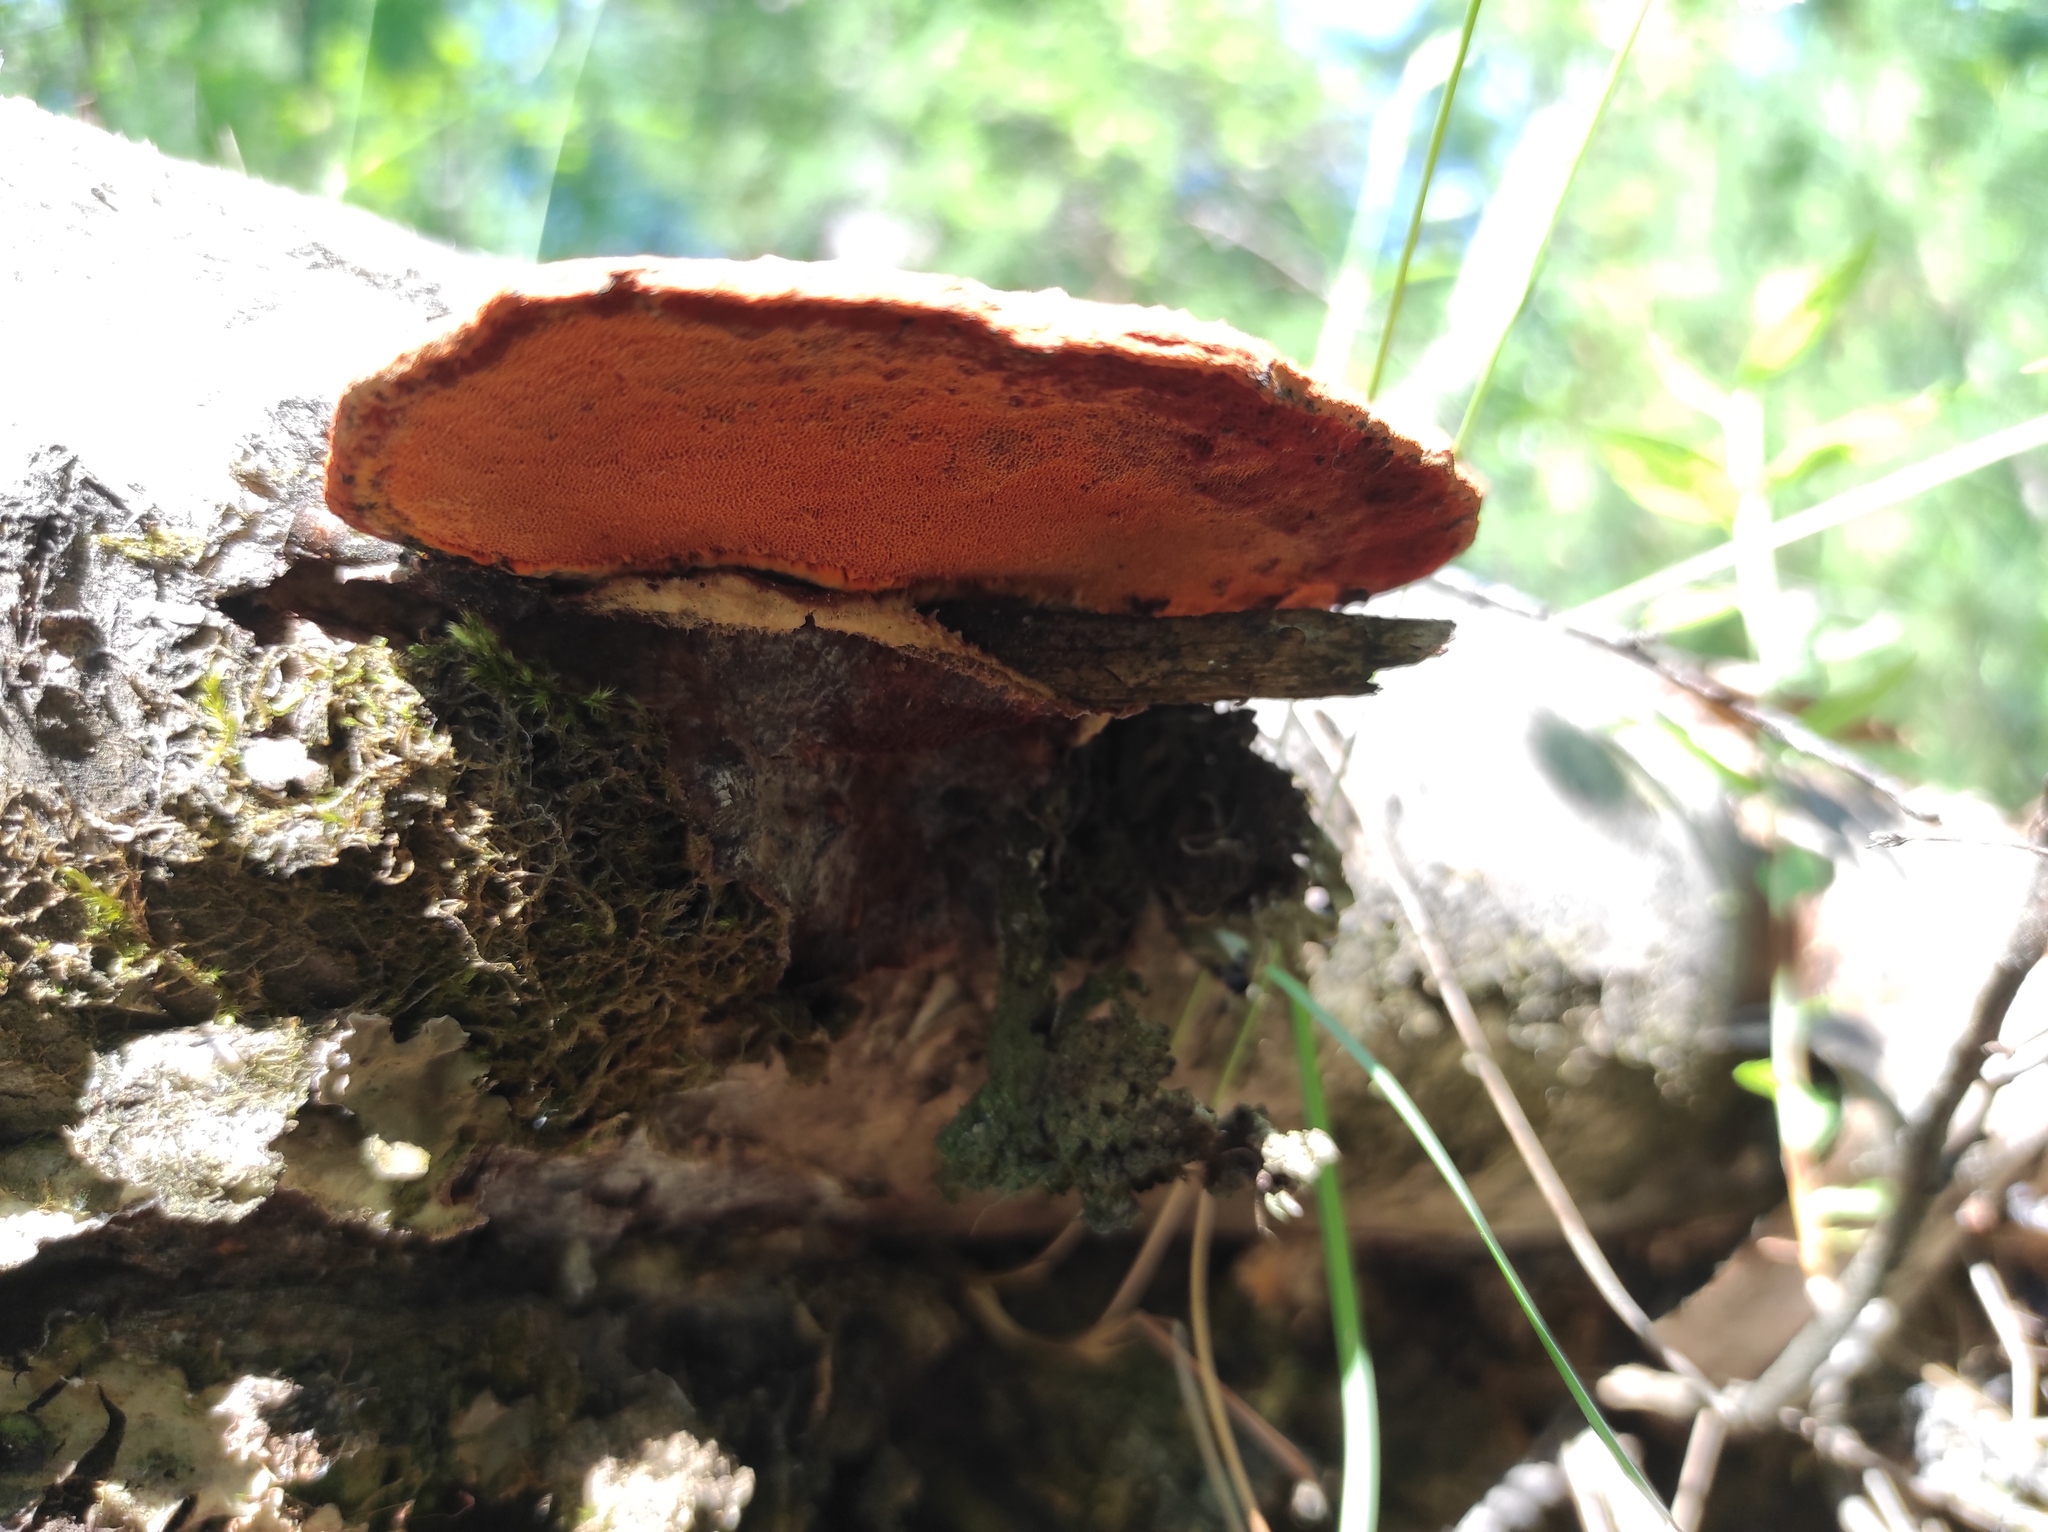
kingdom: Fungi
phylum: Basidiomycota
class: Agaricomycetes
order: Polyporales
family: Polyporaceae
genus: Trametes
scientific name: Trametes cinnabarina
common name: Northern cinnabar polypore
